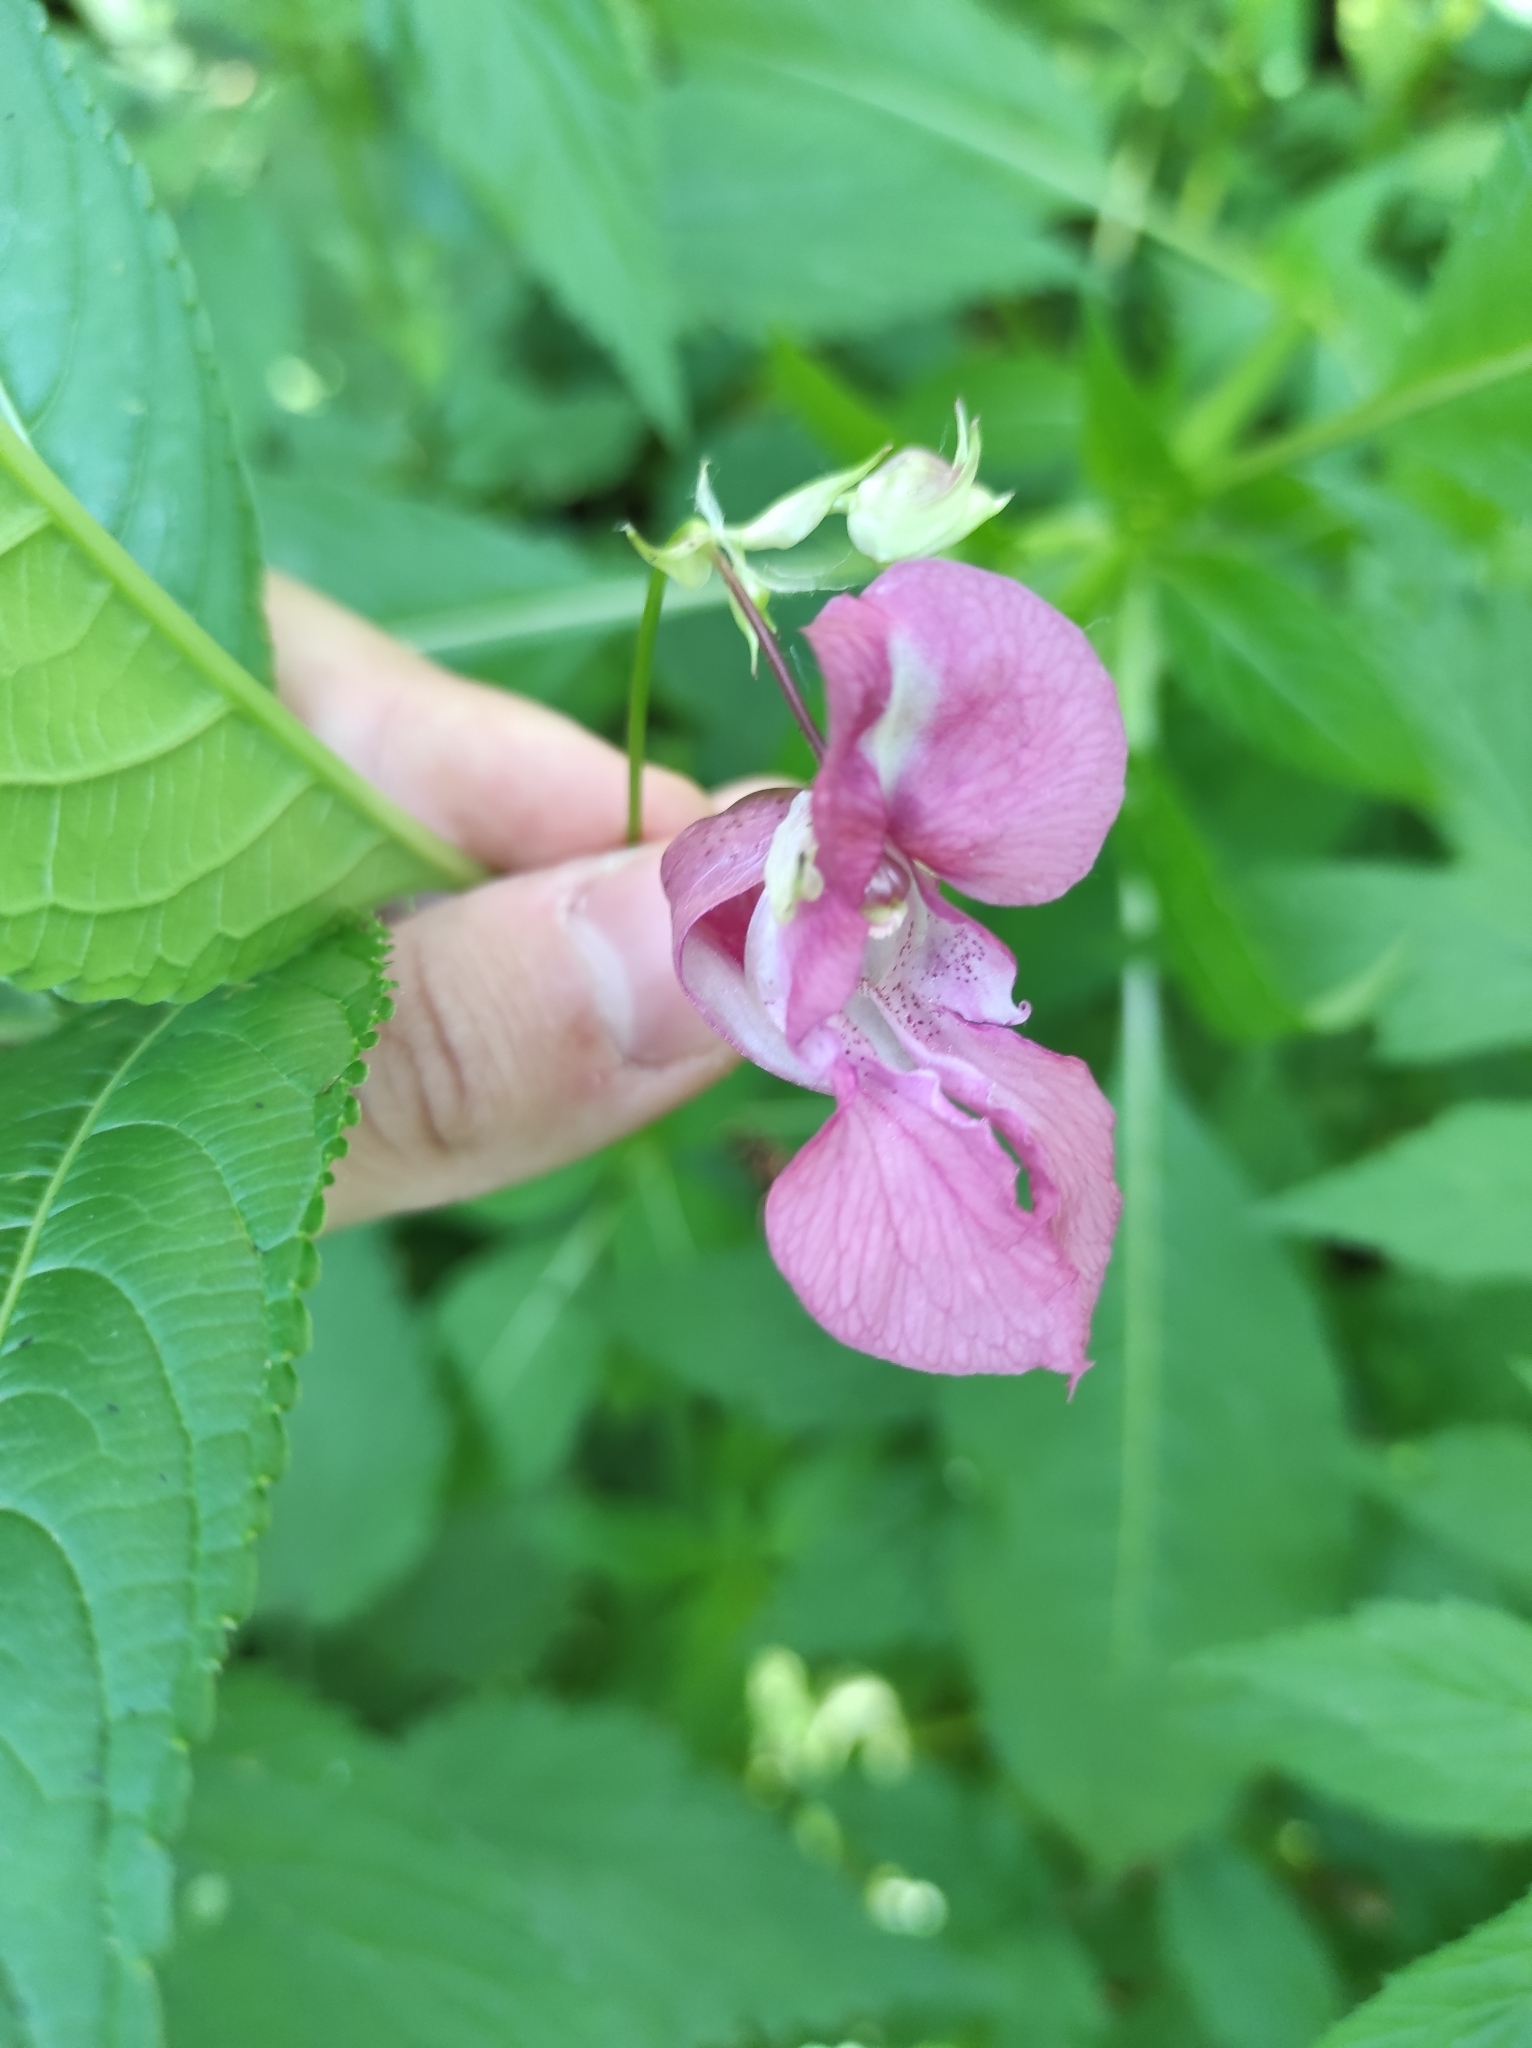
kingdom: Plantae
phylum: Tracheophyta
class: Magnoliopsida
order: Ericales
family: Balsaminaceae
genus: Impatiens
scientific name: Impatiens glandulifera
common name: Himalayan balsam
